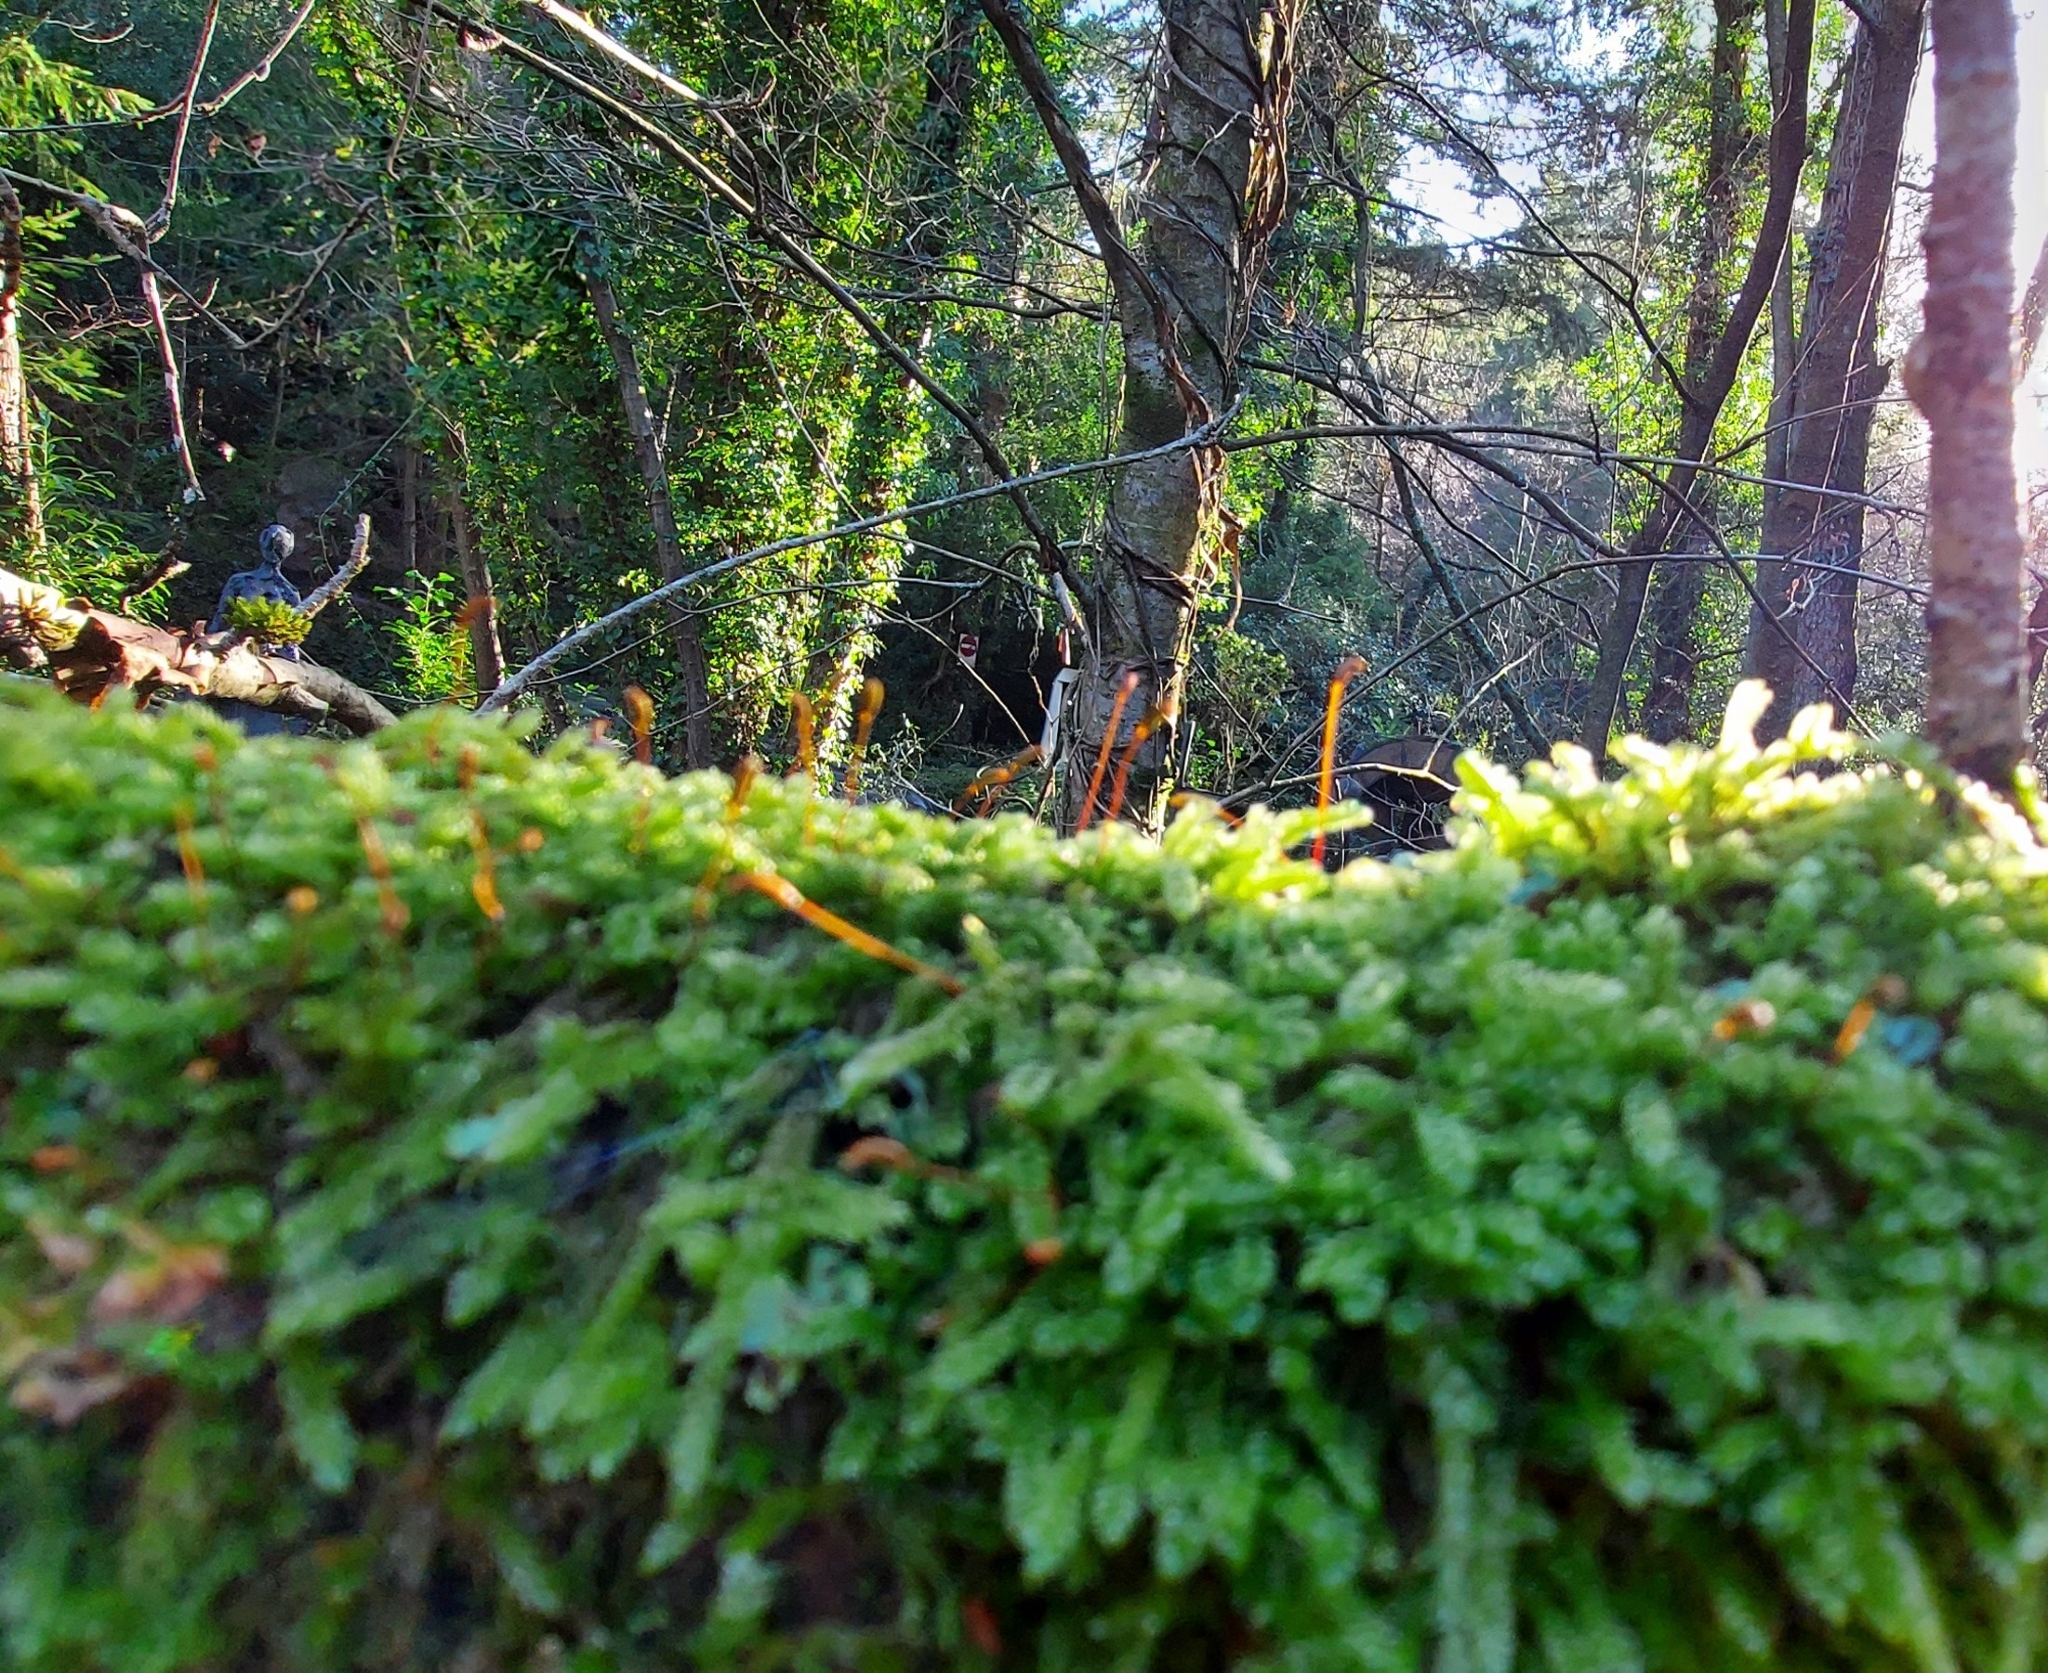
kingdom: Plantae
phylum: Bryophyta
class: Bryopsida
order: Hypnales
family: Hypnaceae
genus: Hypnum
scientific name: Hypnum cupressiforme
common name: Cypress-leaved plait-moss
